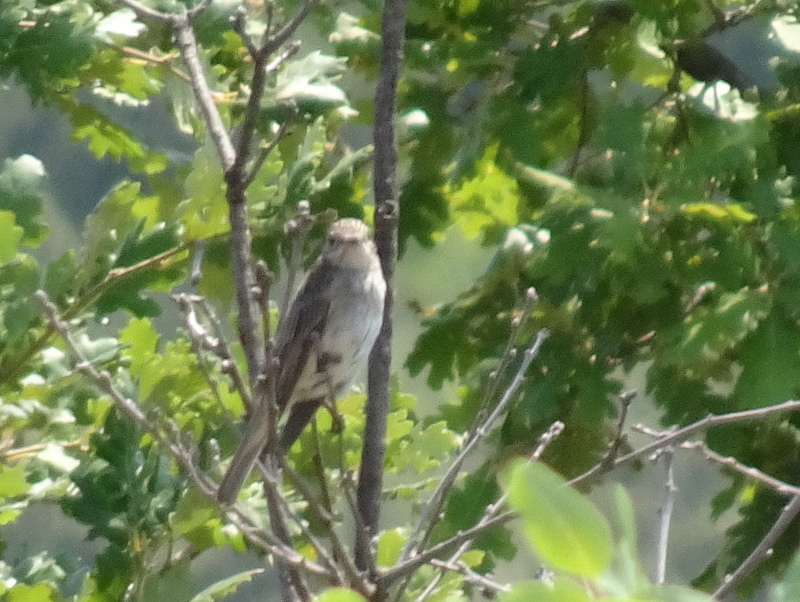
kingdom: Animalia
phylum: Chordata
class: Aves
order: Passeriformes
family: Muscicapidae
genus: Muscicapa
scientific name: Muscicapa striata
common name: Spotted flycatcher
